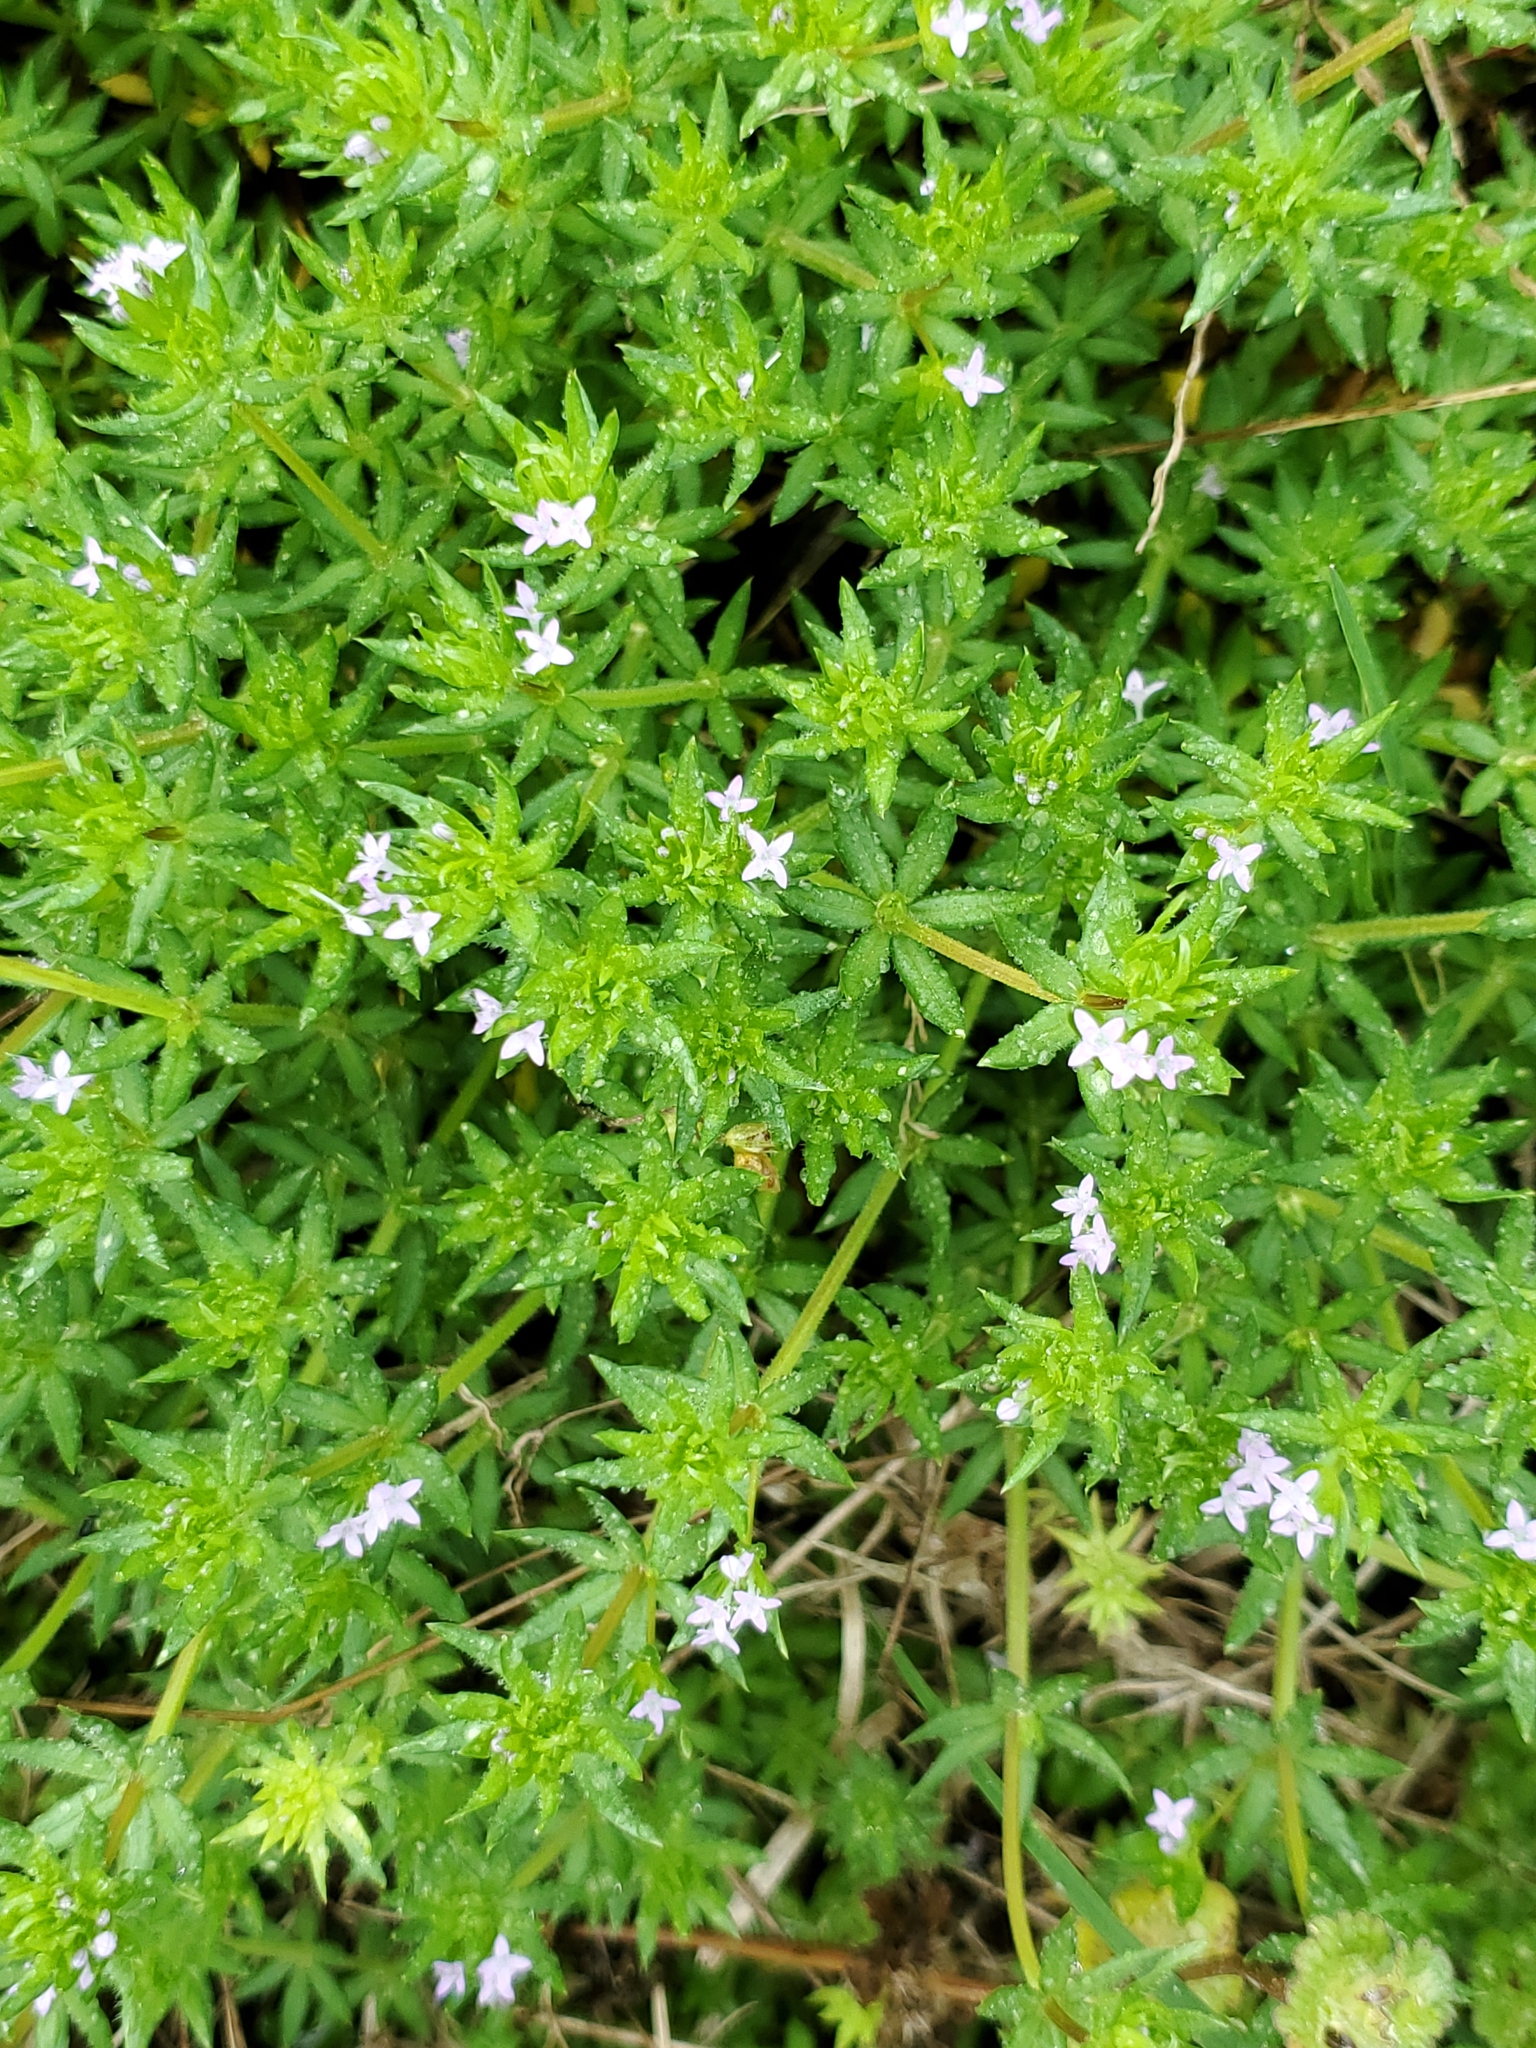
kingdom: Plantae
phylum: Tracheophyta
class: Magnoliopsida
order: Gentianales
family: Rubiaceae
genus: Sherardia
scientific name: Sherardia arvensis
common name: Field madder
